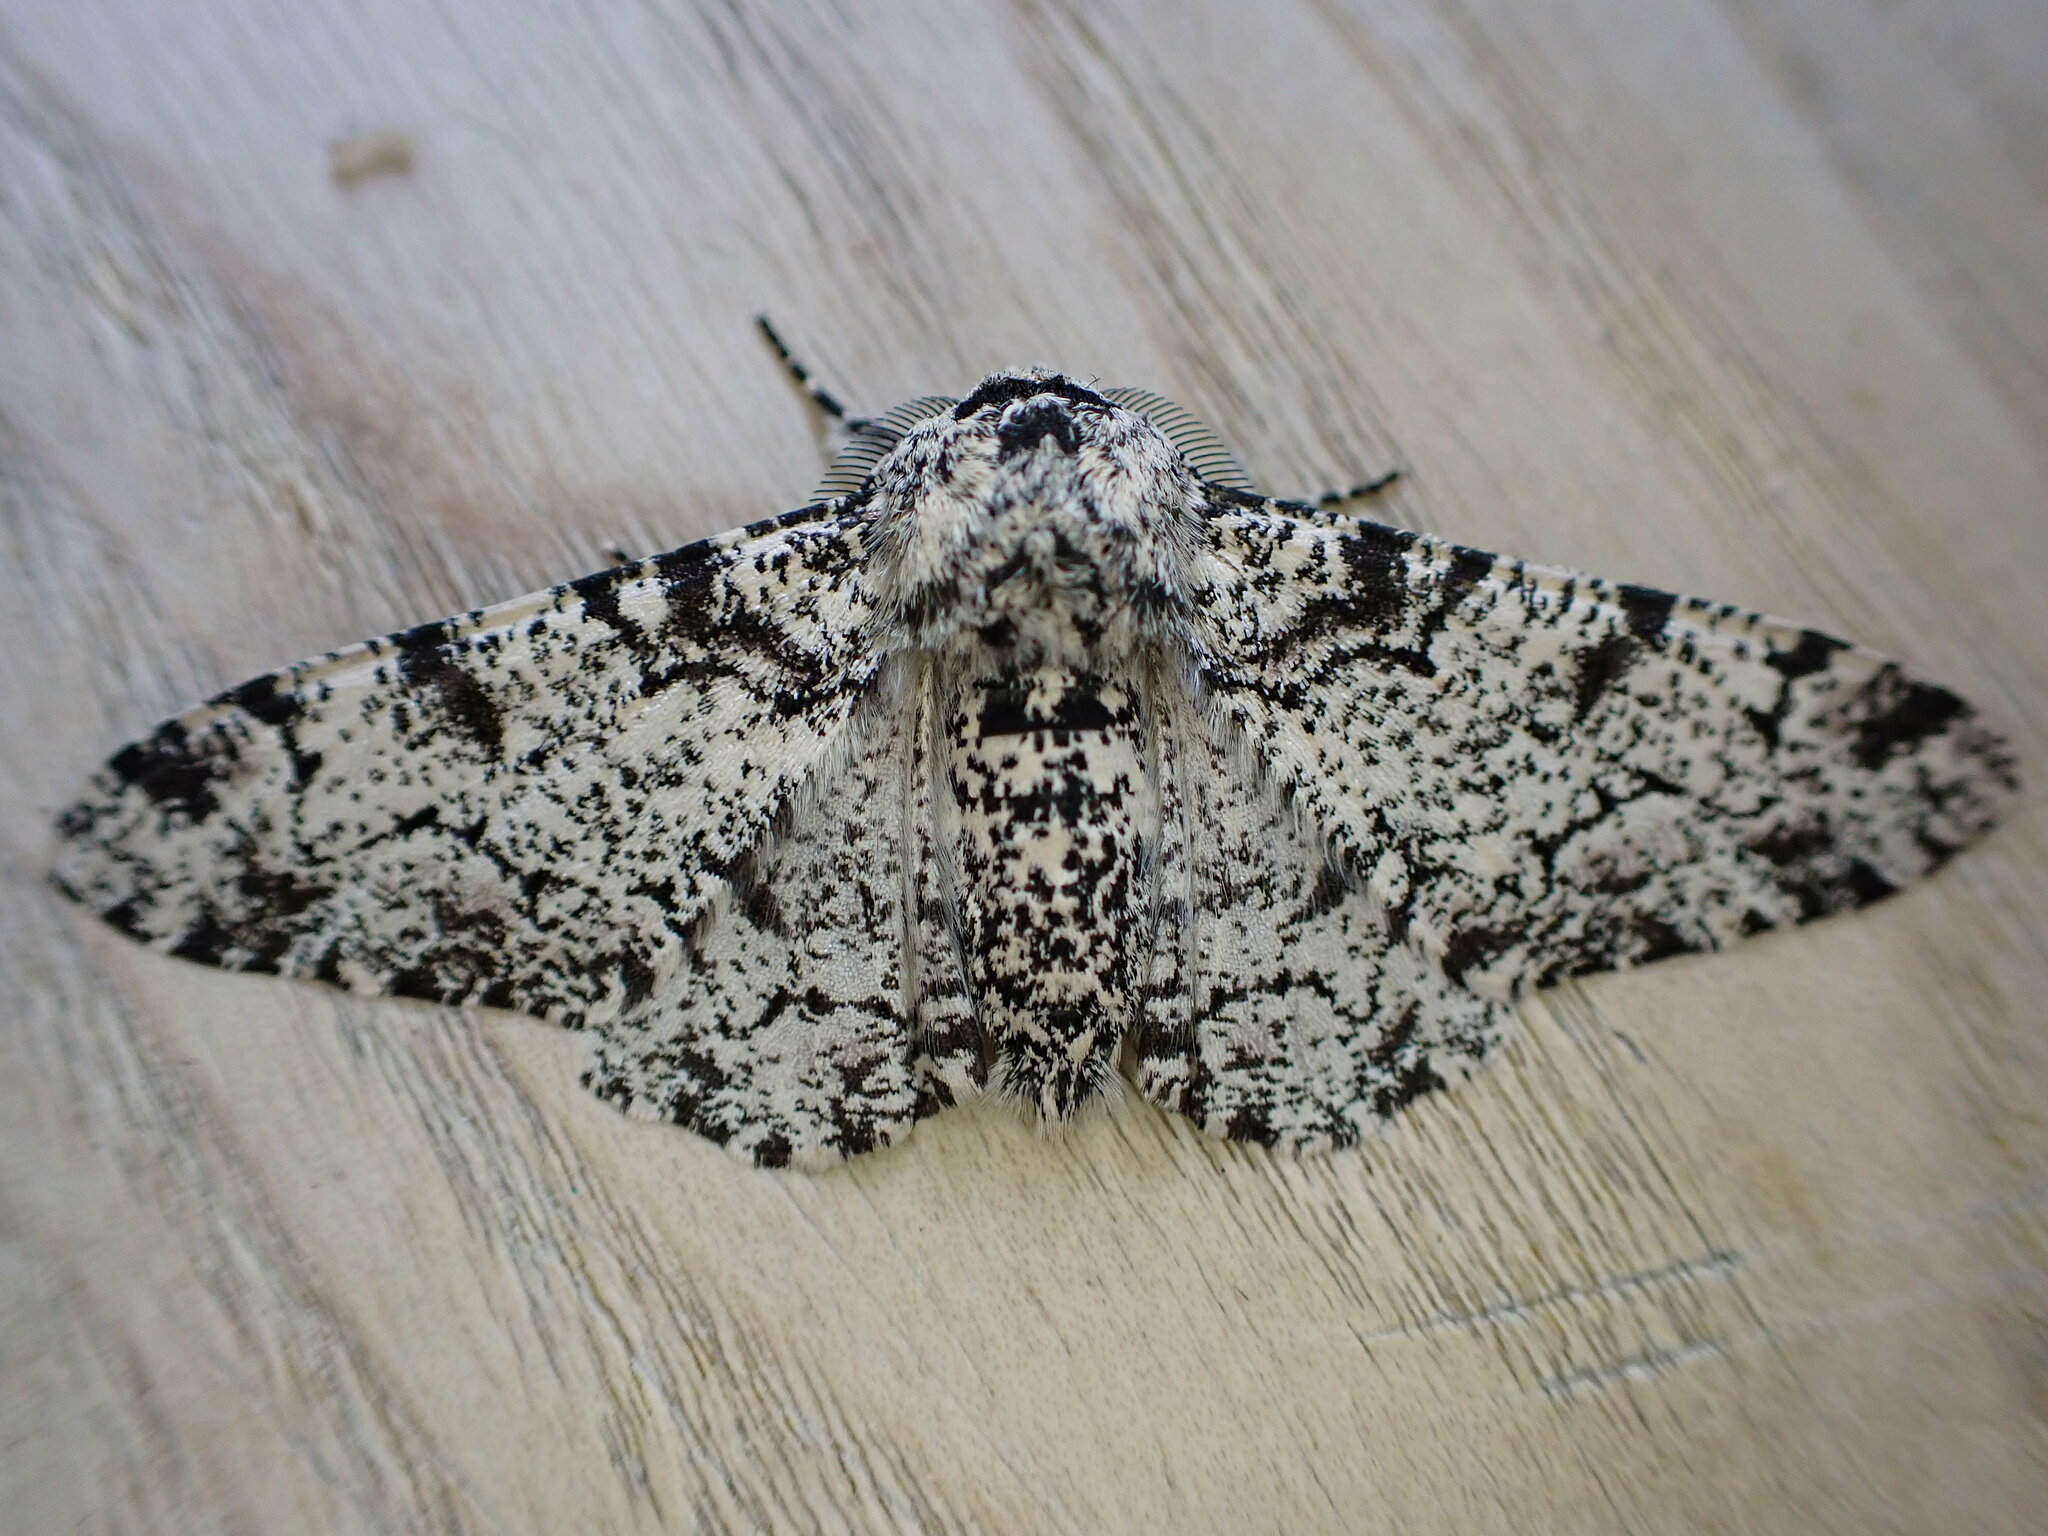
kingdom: Animalia
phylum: Arthropoda
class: Insecta
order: Lepidoptera
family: Geometridae
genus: Biston
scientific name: Biston betularia
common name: Peppered moth
